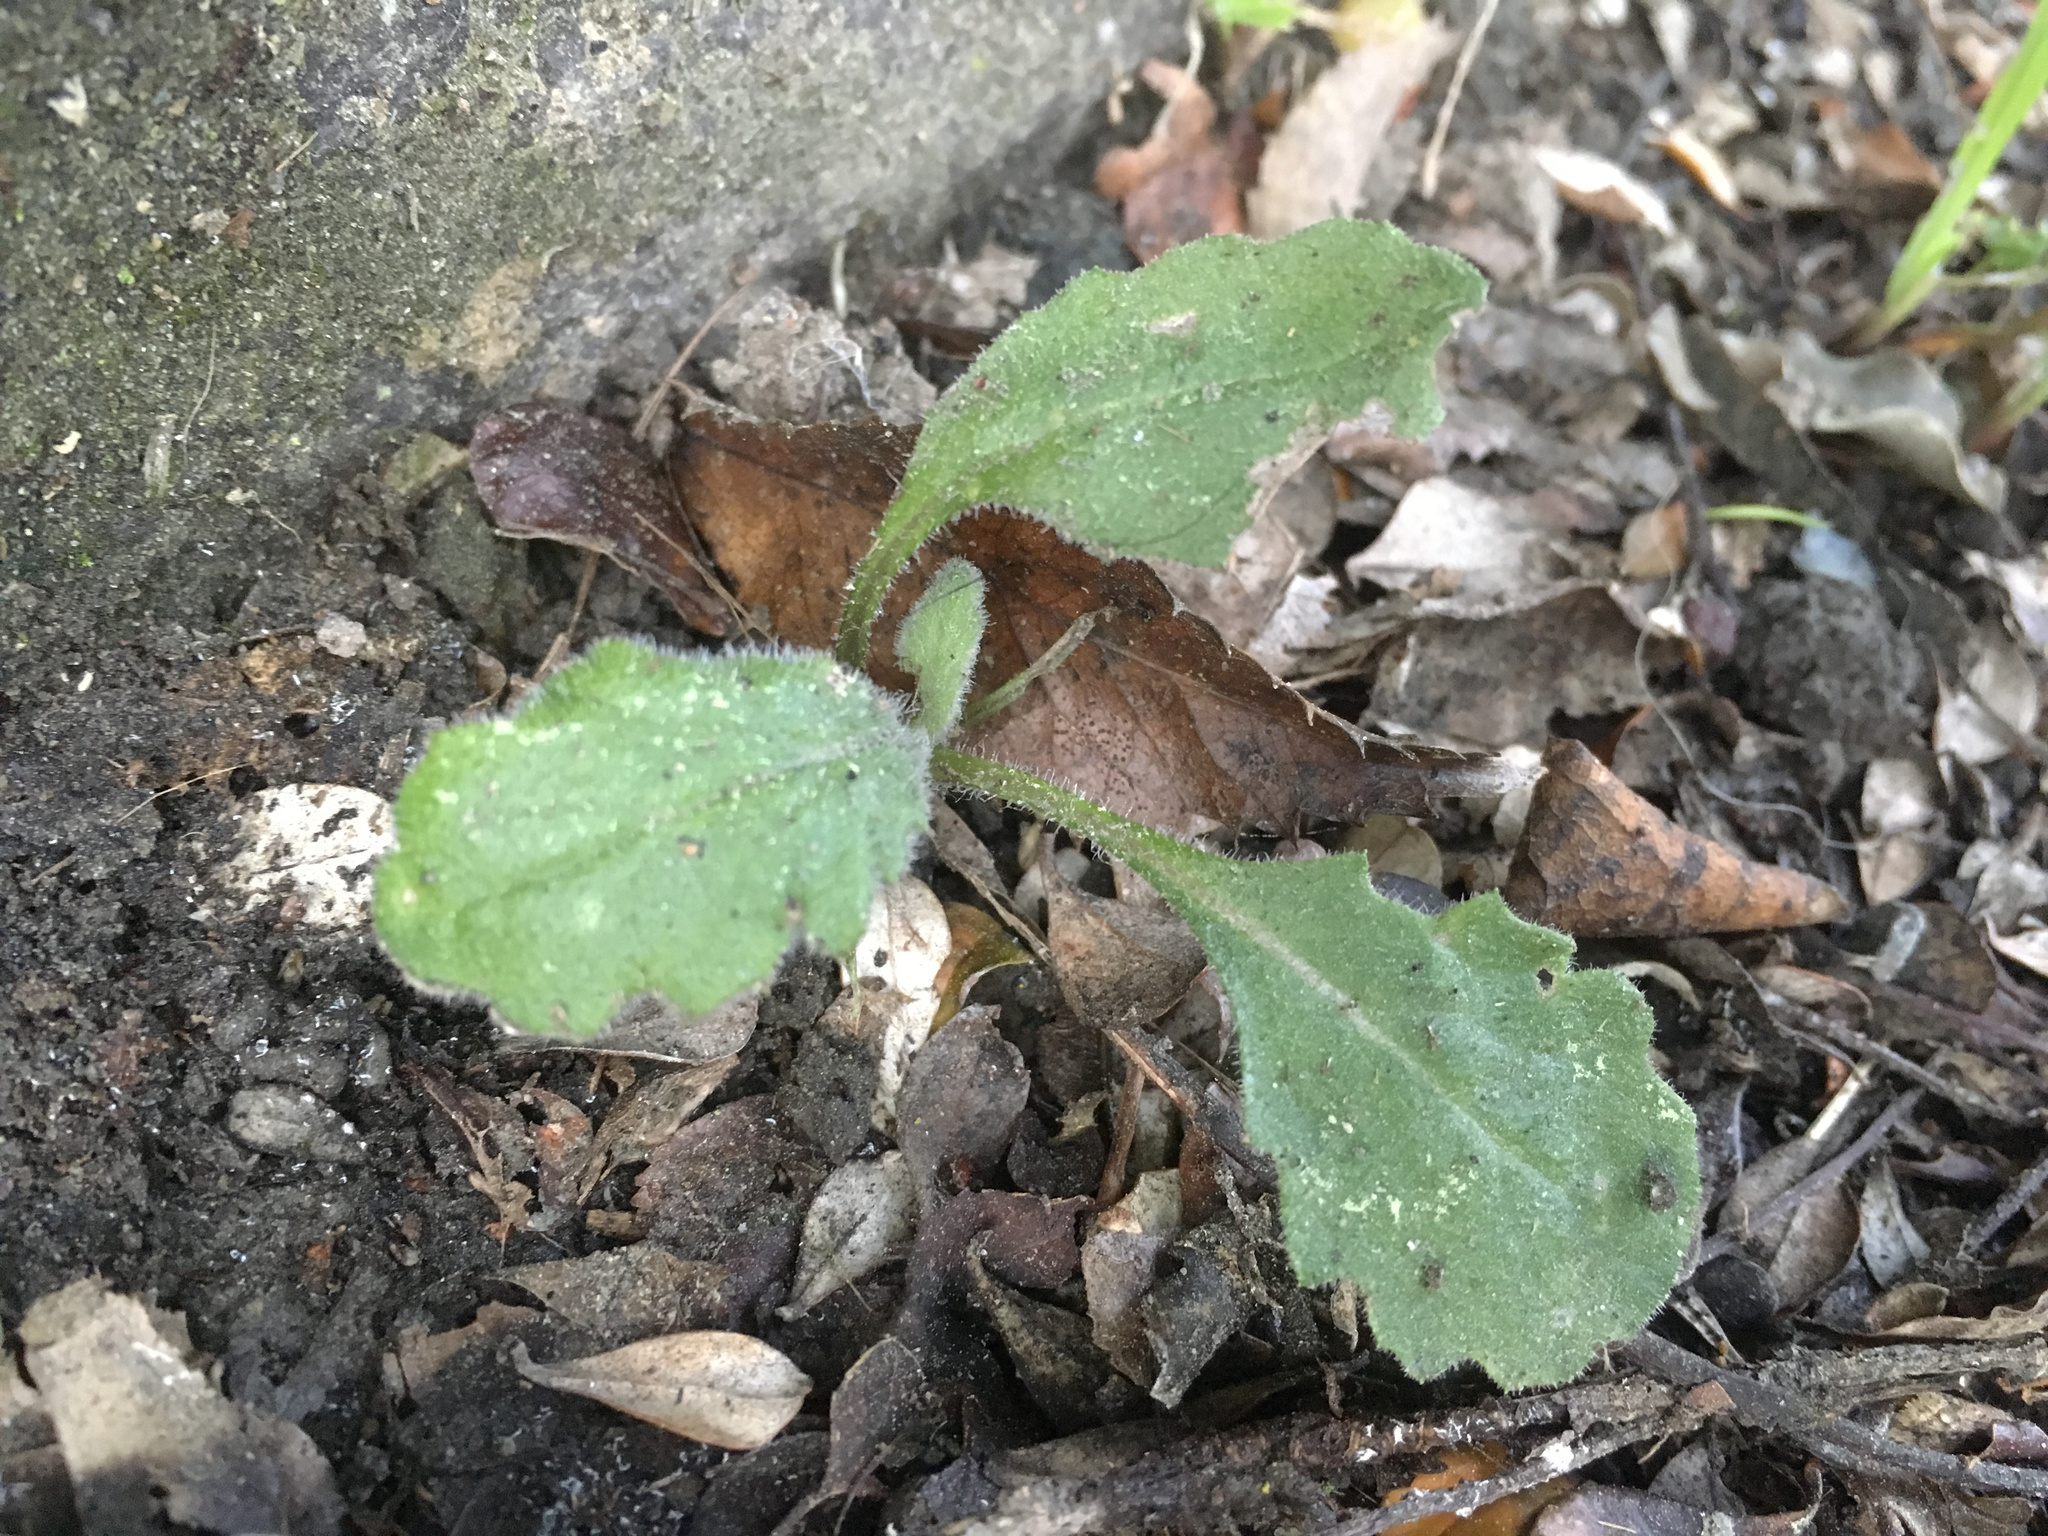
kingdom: Plantae
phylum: Tracheophyta
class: Magnoliopsida
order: Asterales
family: Asteraceae
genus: Senecio
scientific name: Senecio glomeratus
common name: Cutleaf burnweed
